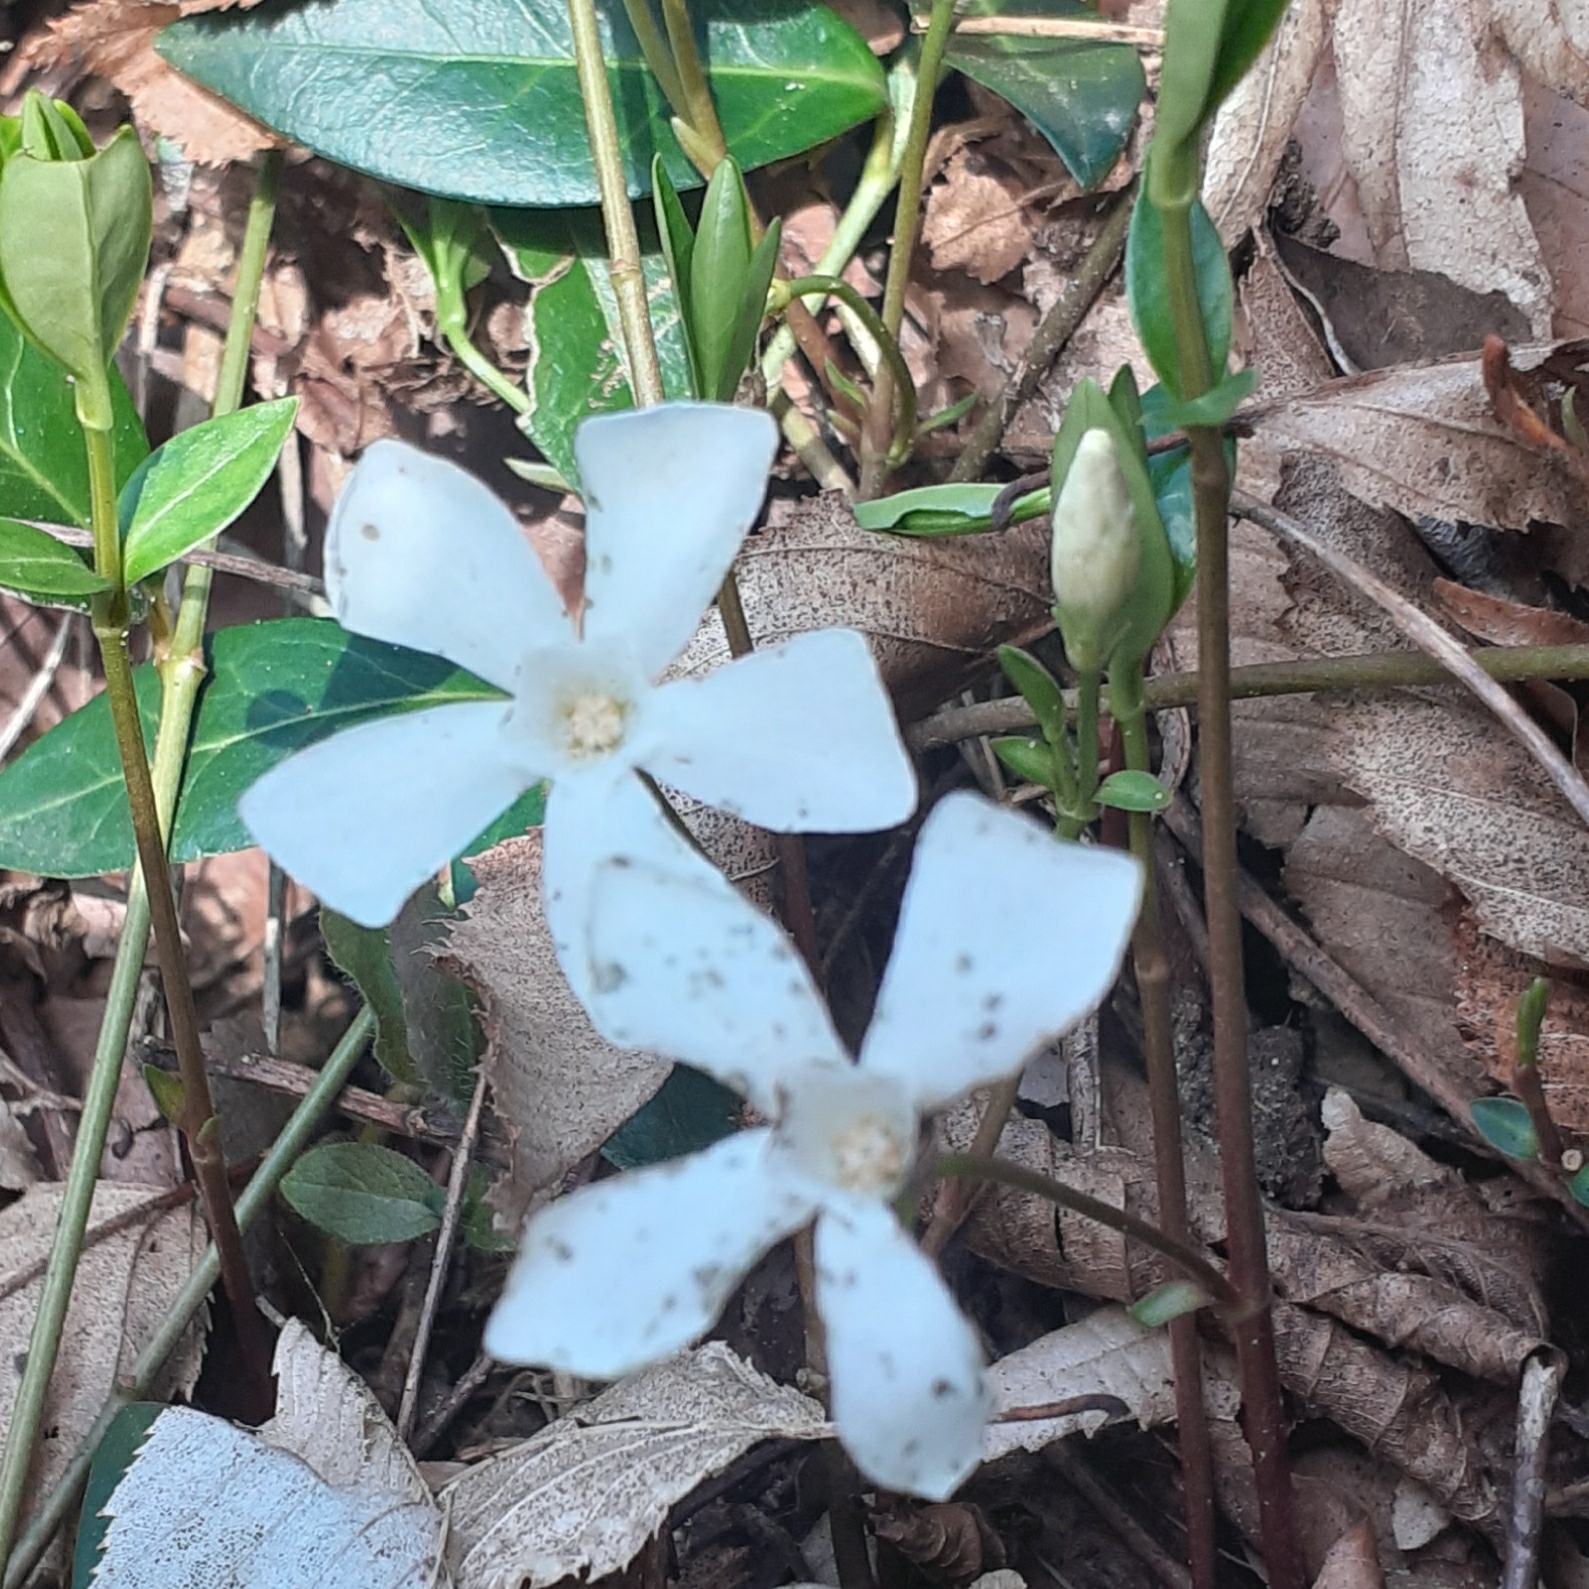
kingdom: Plantae
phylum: Tracheophyta
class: Magnoliopsida
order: Gentianales
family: Apocynaceae
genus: Vinca
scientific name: Vinca minor
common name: Lesser periwinkle
